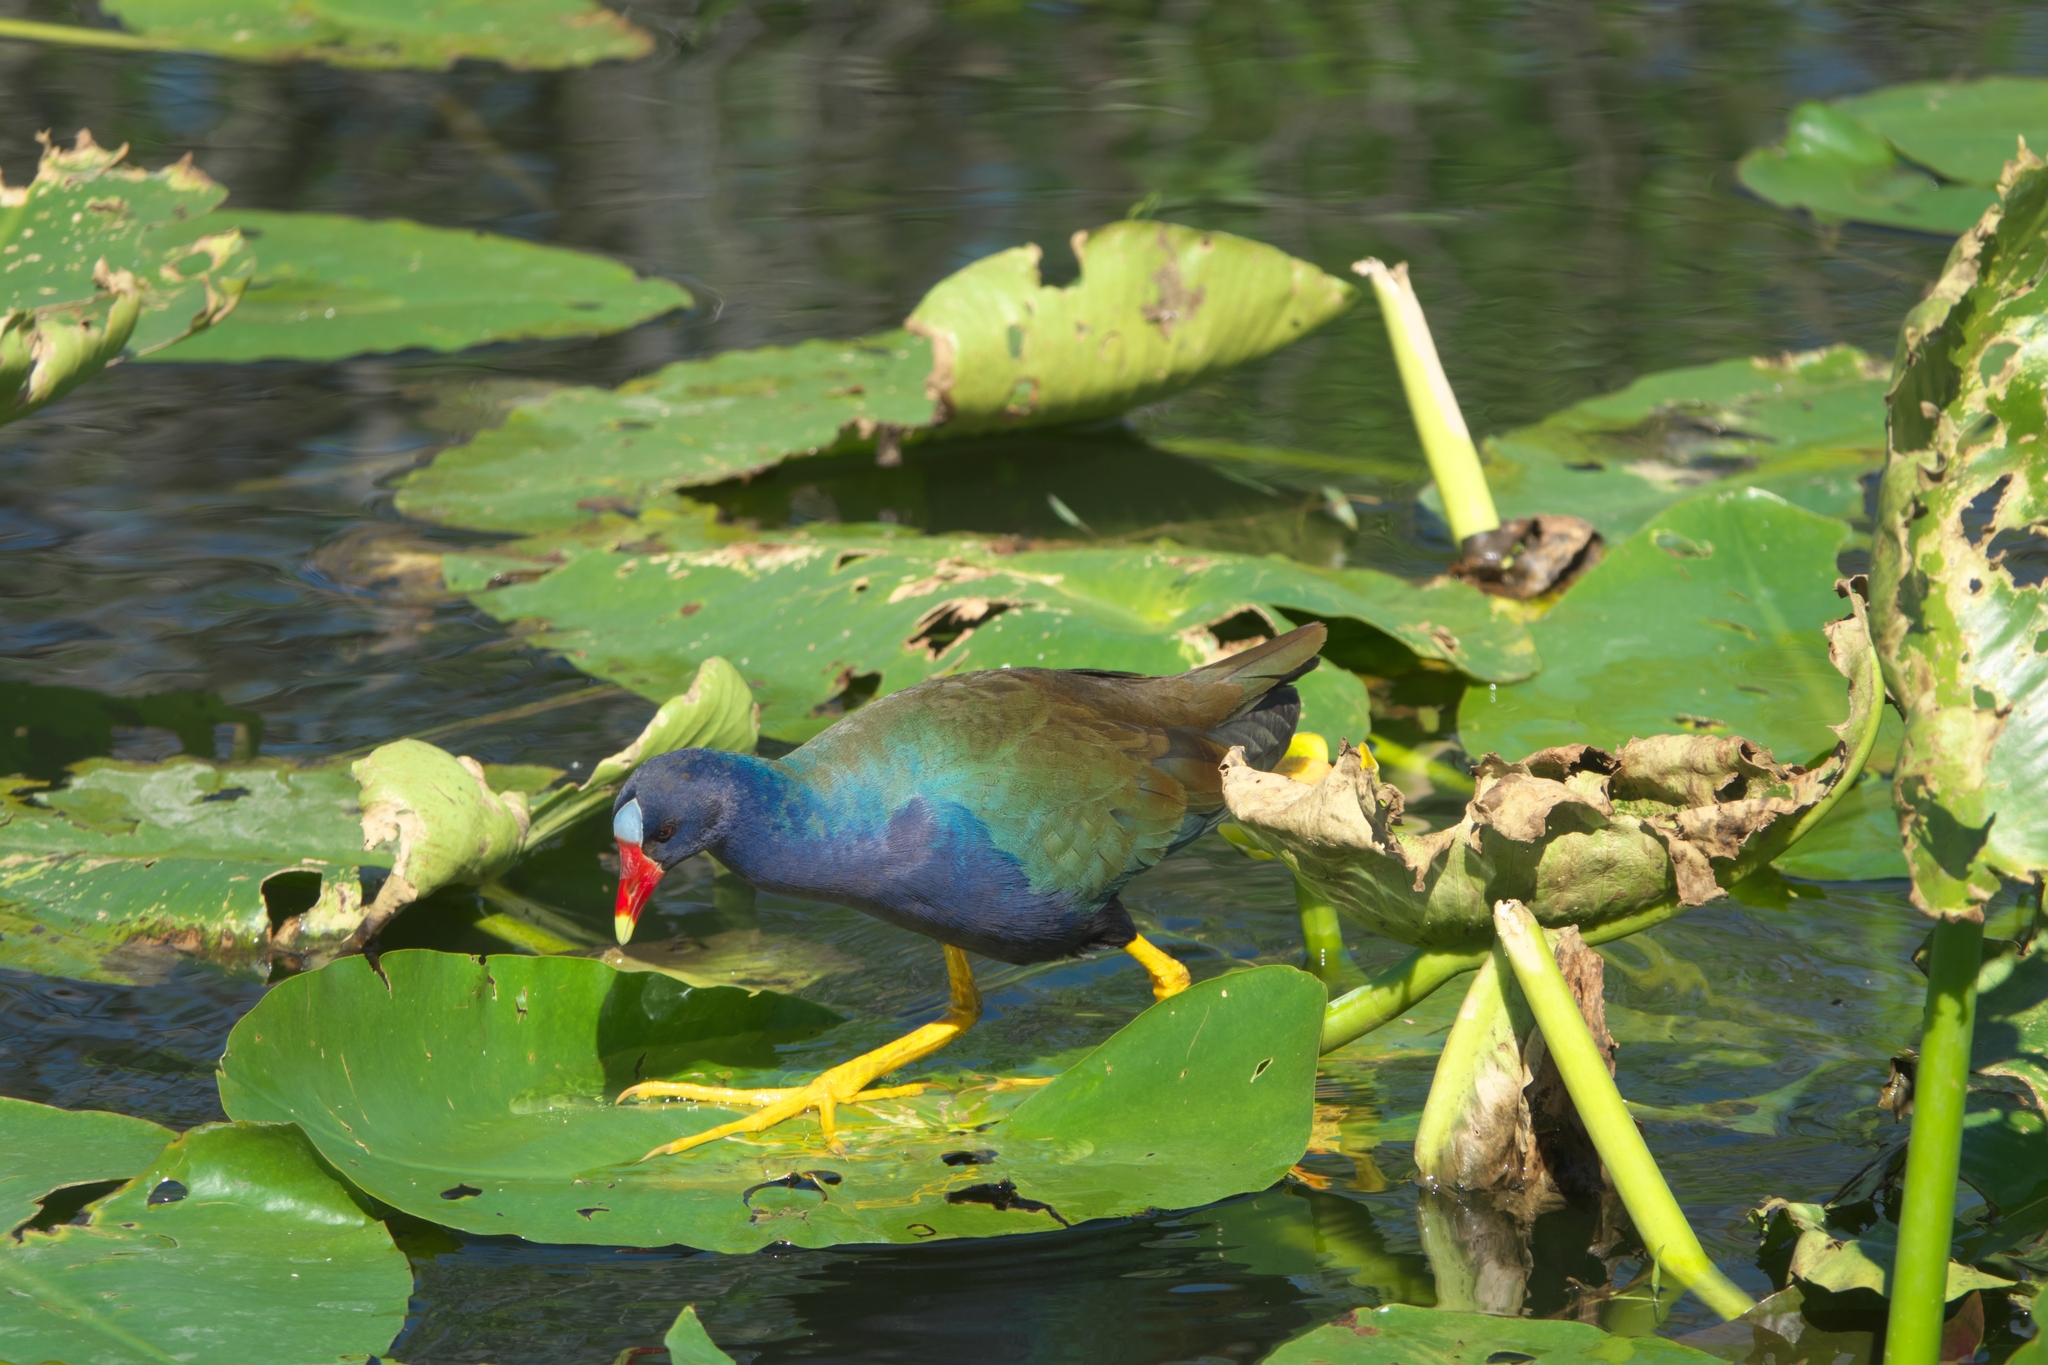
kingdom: Animalia
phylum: Chordata
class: Aves
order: Gruiformes
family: Rallidae
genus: Porphyrio
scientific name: Porphyrio martinica
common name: Purple gallinule
